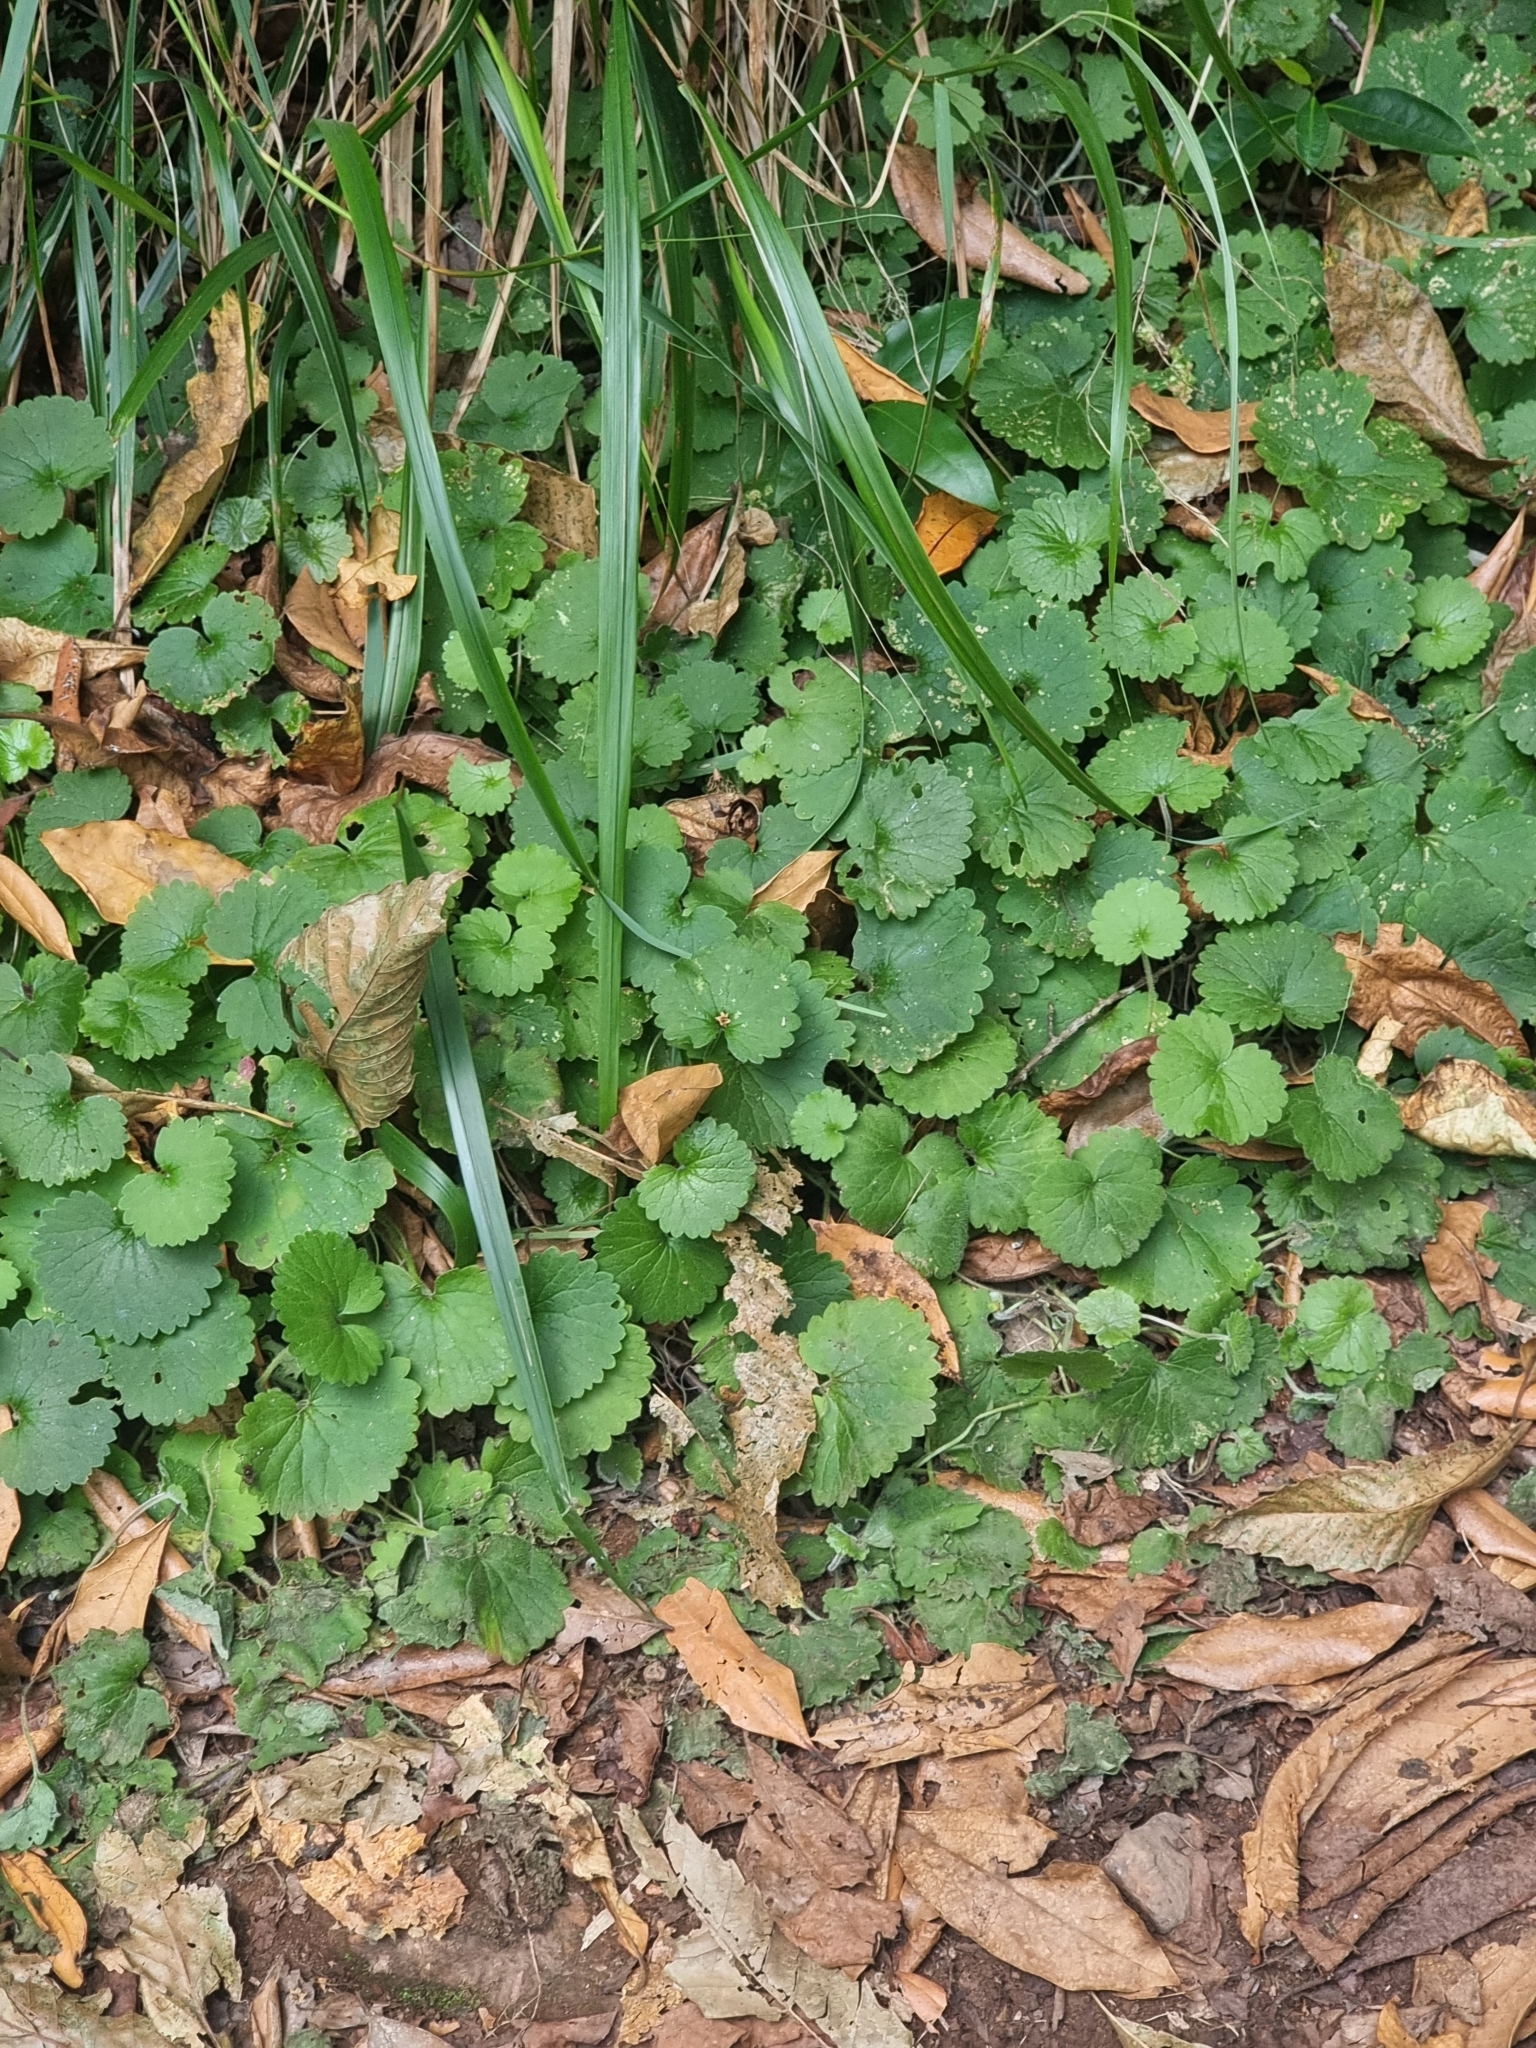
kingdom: Plantae
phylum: Tracheophyta
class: Magnoliopsida
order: Lamiales
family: Plantaginaceae
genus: Sibthorpia
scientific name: Sibthorpia peregrina
